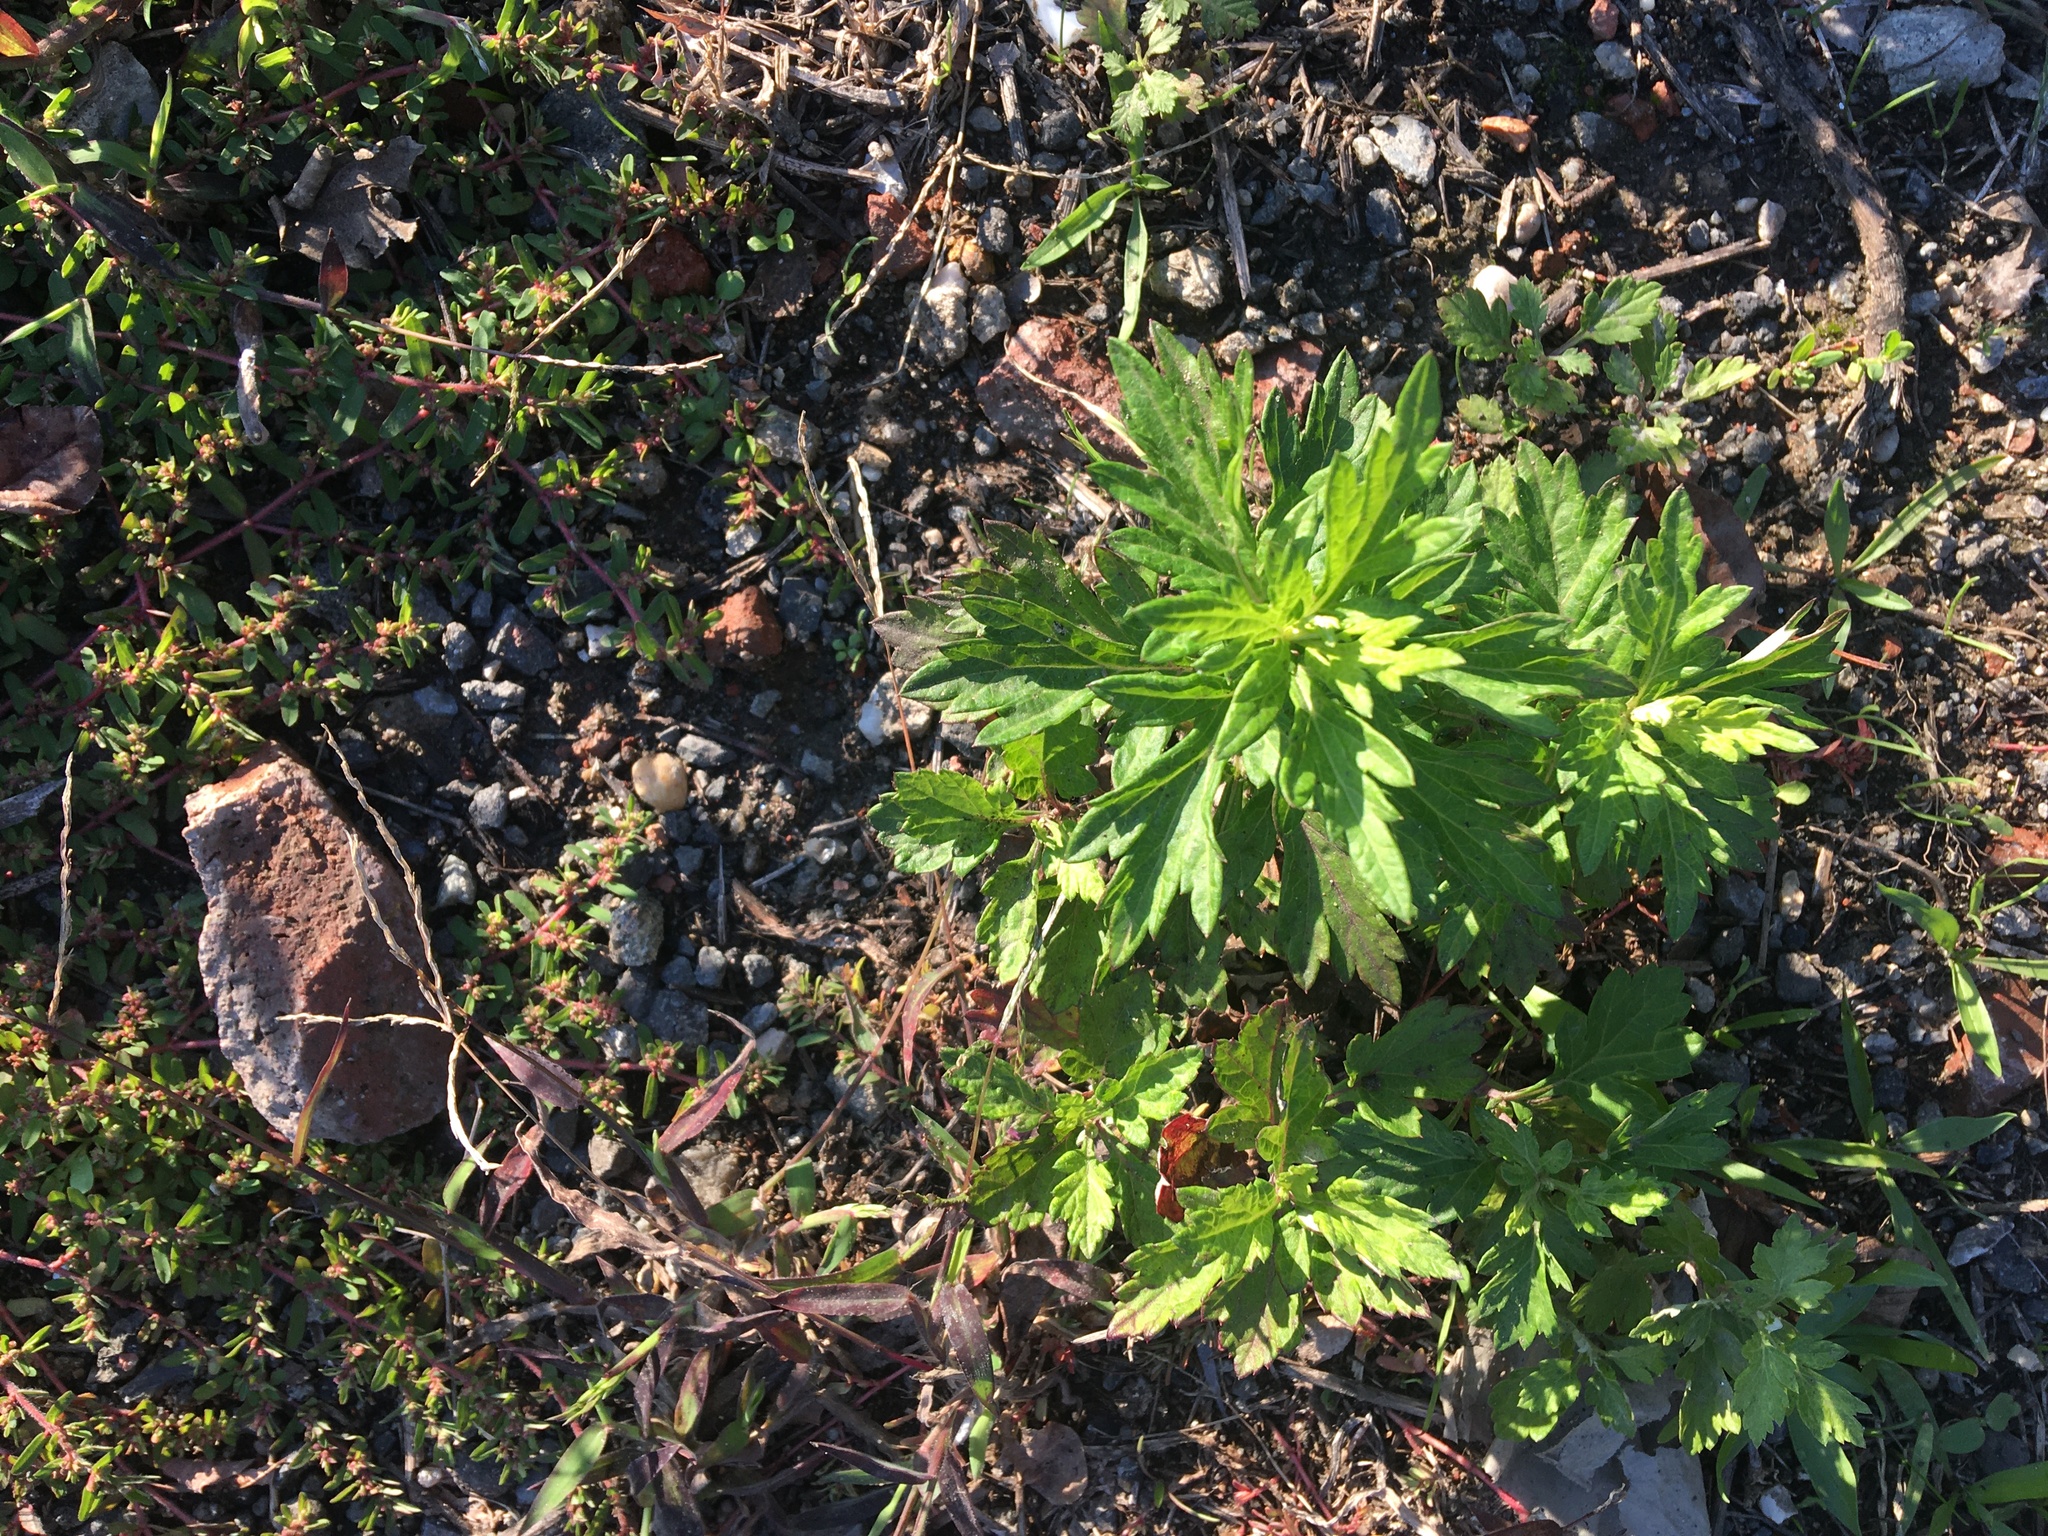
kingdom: Plantae
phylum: Tracheophyta
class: Magnoliopsida
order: Asterales
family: Asteraceae
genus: Artemisia
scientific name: Artemisia vulgaris
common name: Mugwort
